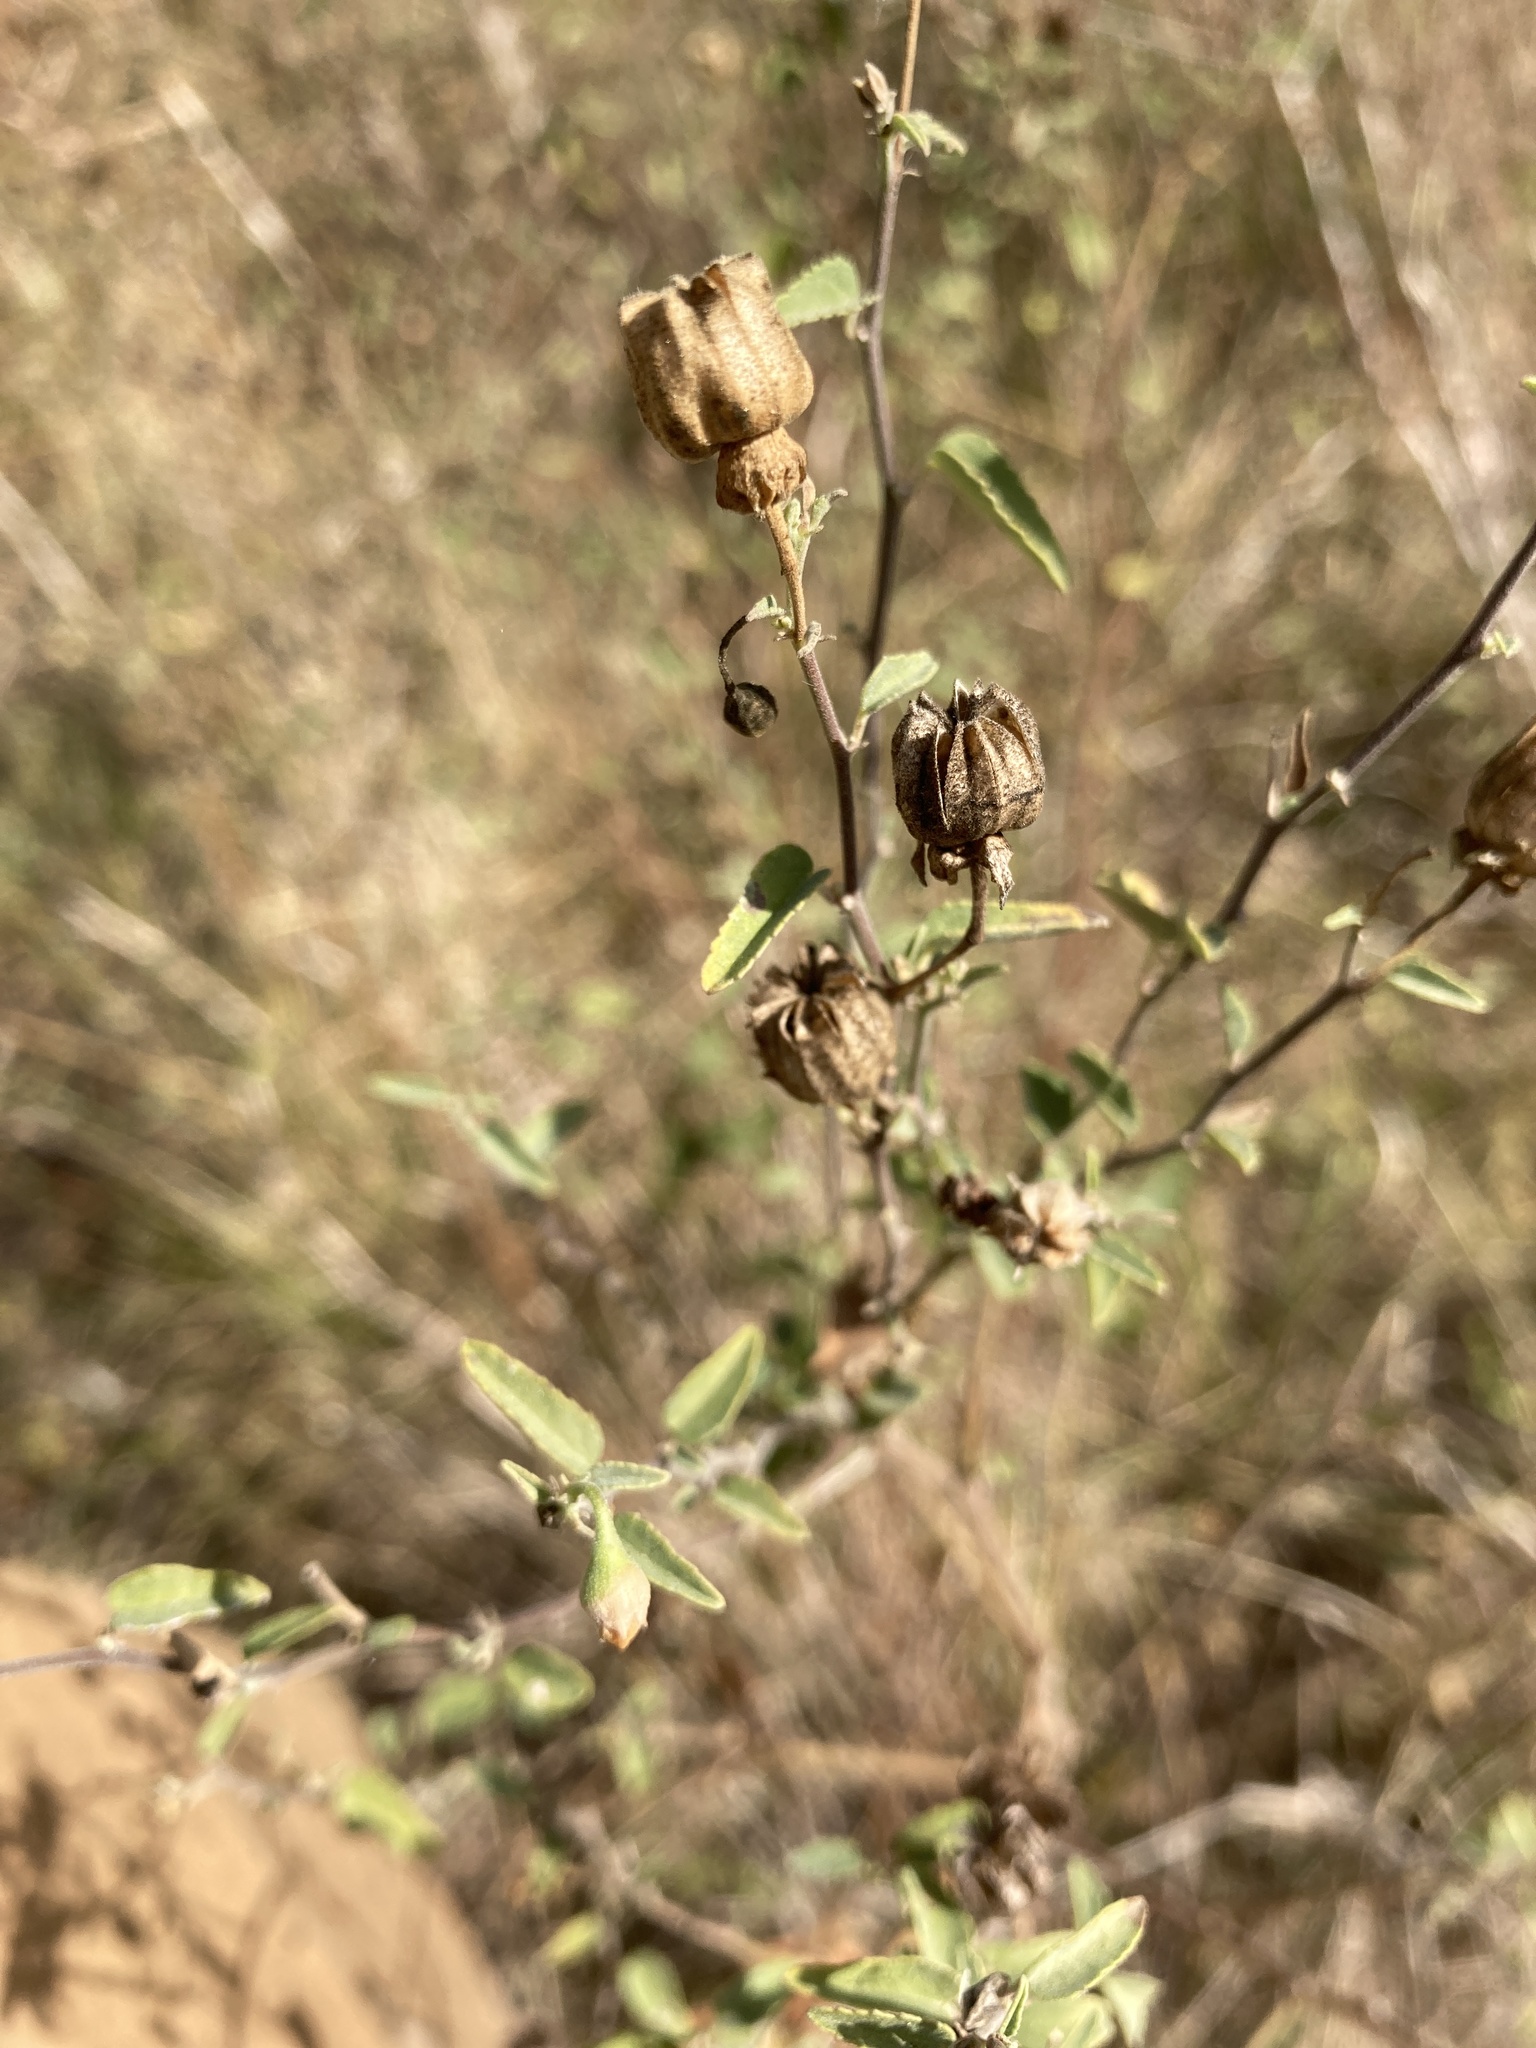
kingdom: Plantae
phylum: Tracheophyta
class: Magnoliopsida
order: Malvales
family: Malvaceae
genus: Abutilon
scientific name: Abutilon fruticosum
